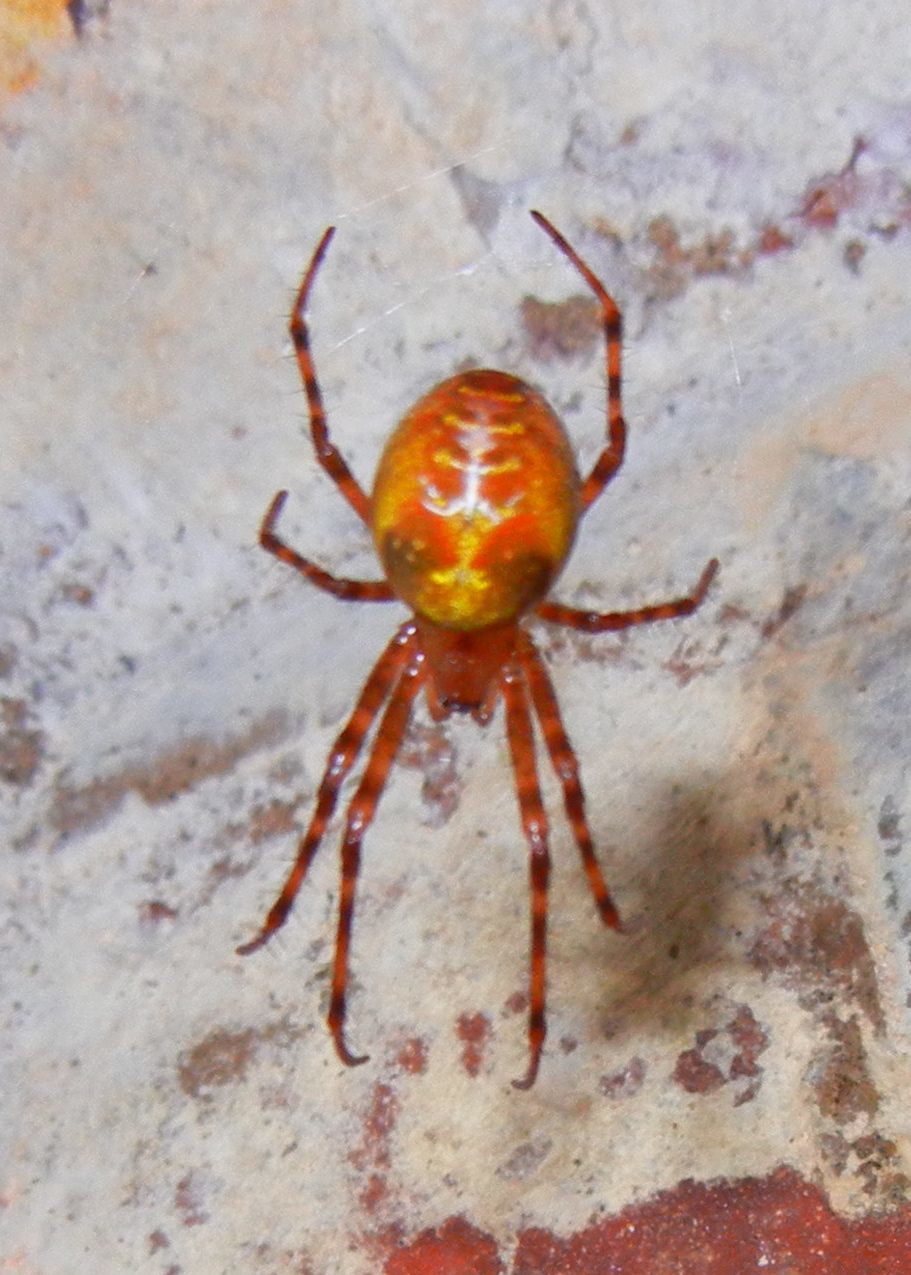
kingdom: Animalia
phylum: Arthropoda
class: Arachnida
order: Araneae
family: Tetragnathidae
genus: Meta
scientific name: Meta menardi
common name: Cave spider
